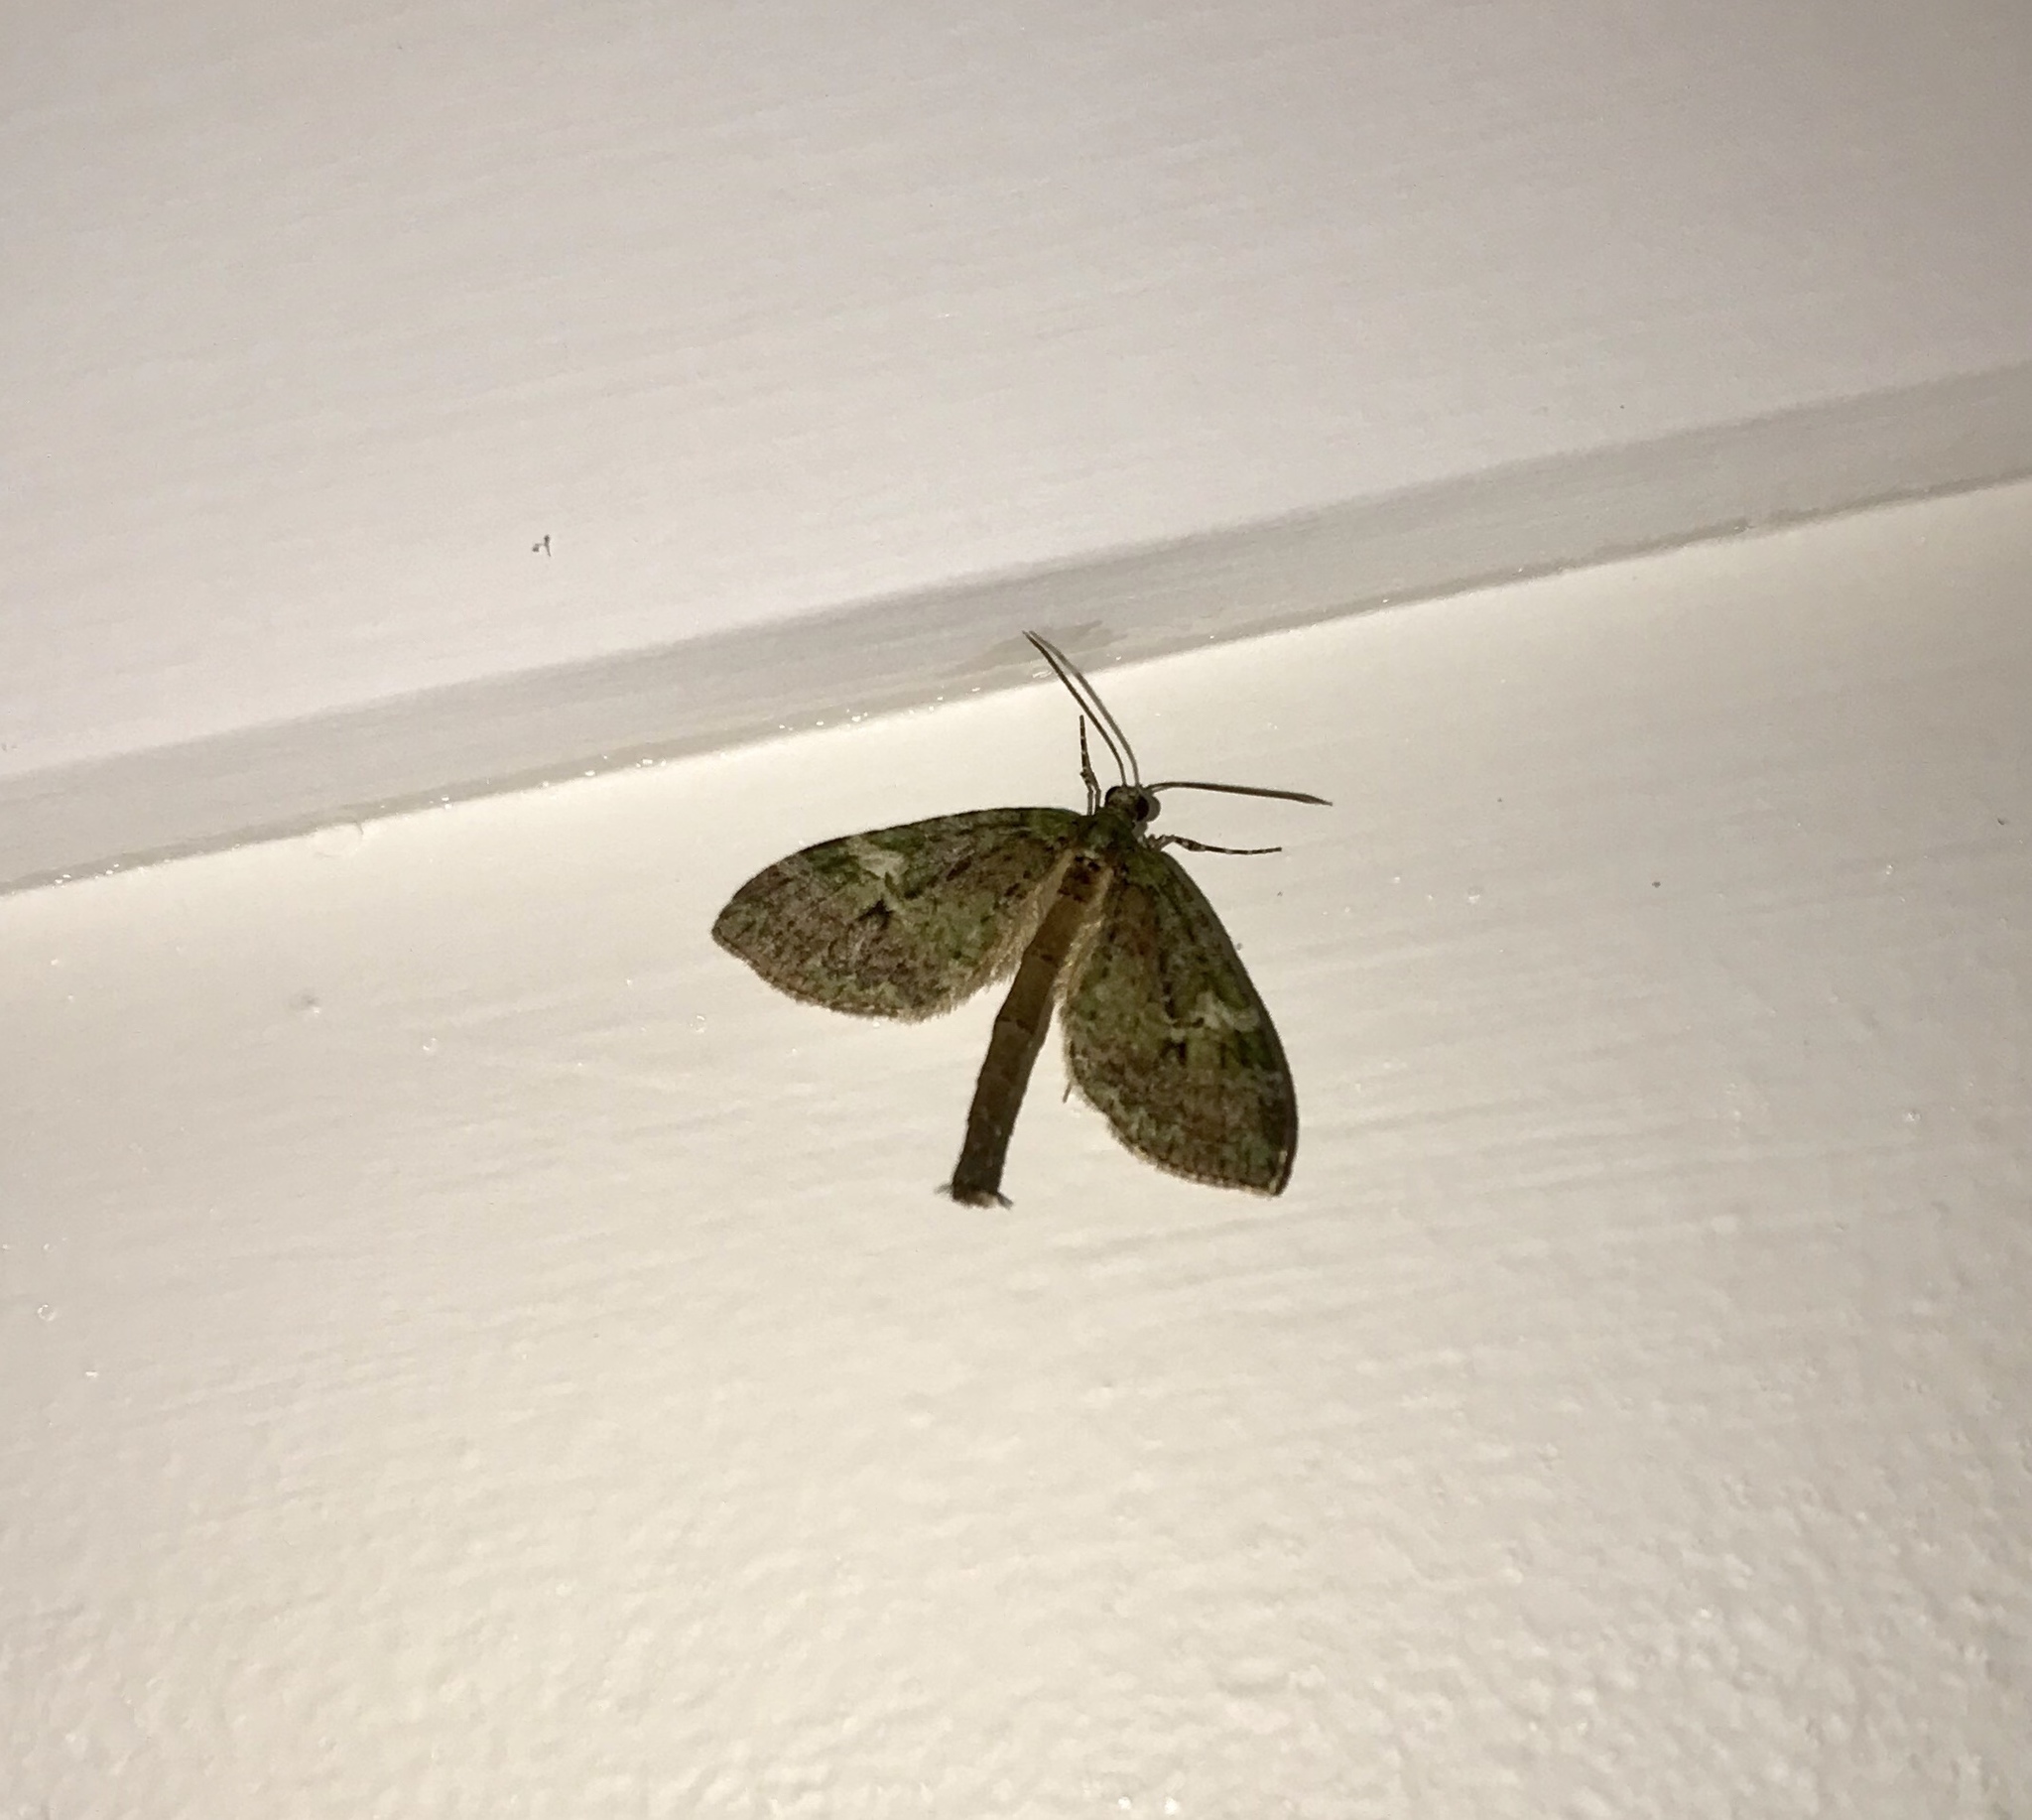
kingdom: Animalia
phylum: Arthropoda
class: Insecta
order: Lepidoptera
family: Geometridae
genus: Tatosoma
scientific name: Tatosoma topea
